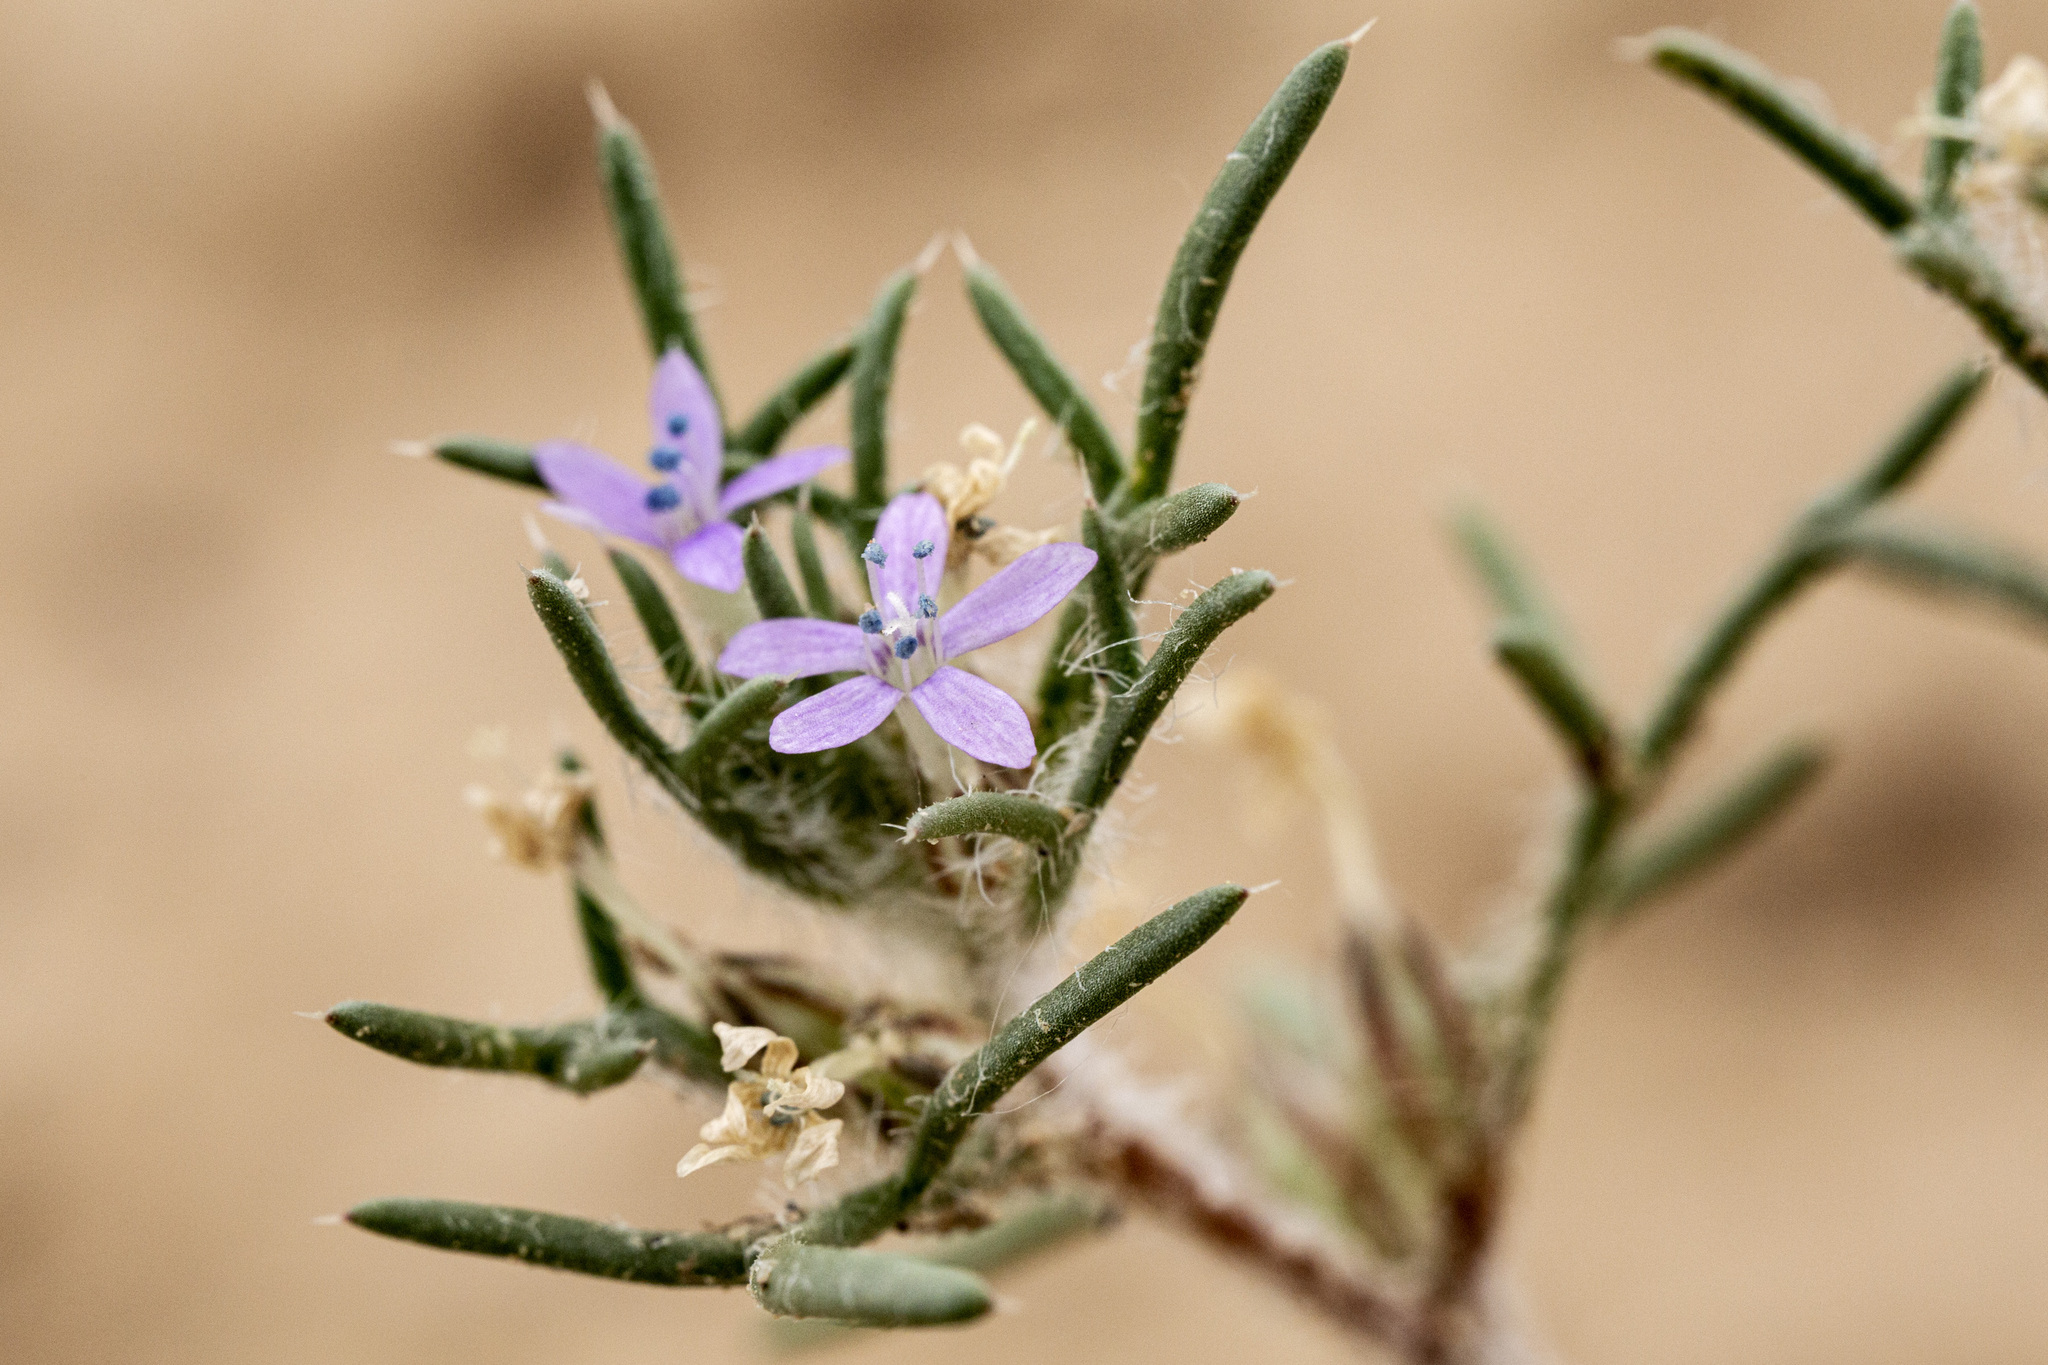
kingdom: Plantae
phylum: Tracheophyta
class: Magnoliopsida
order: Ericales
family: Polemoniaceae
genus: Ipomopsis
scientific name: Ipomopsis pumila
